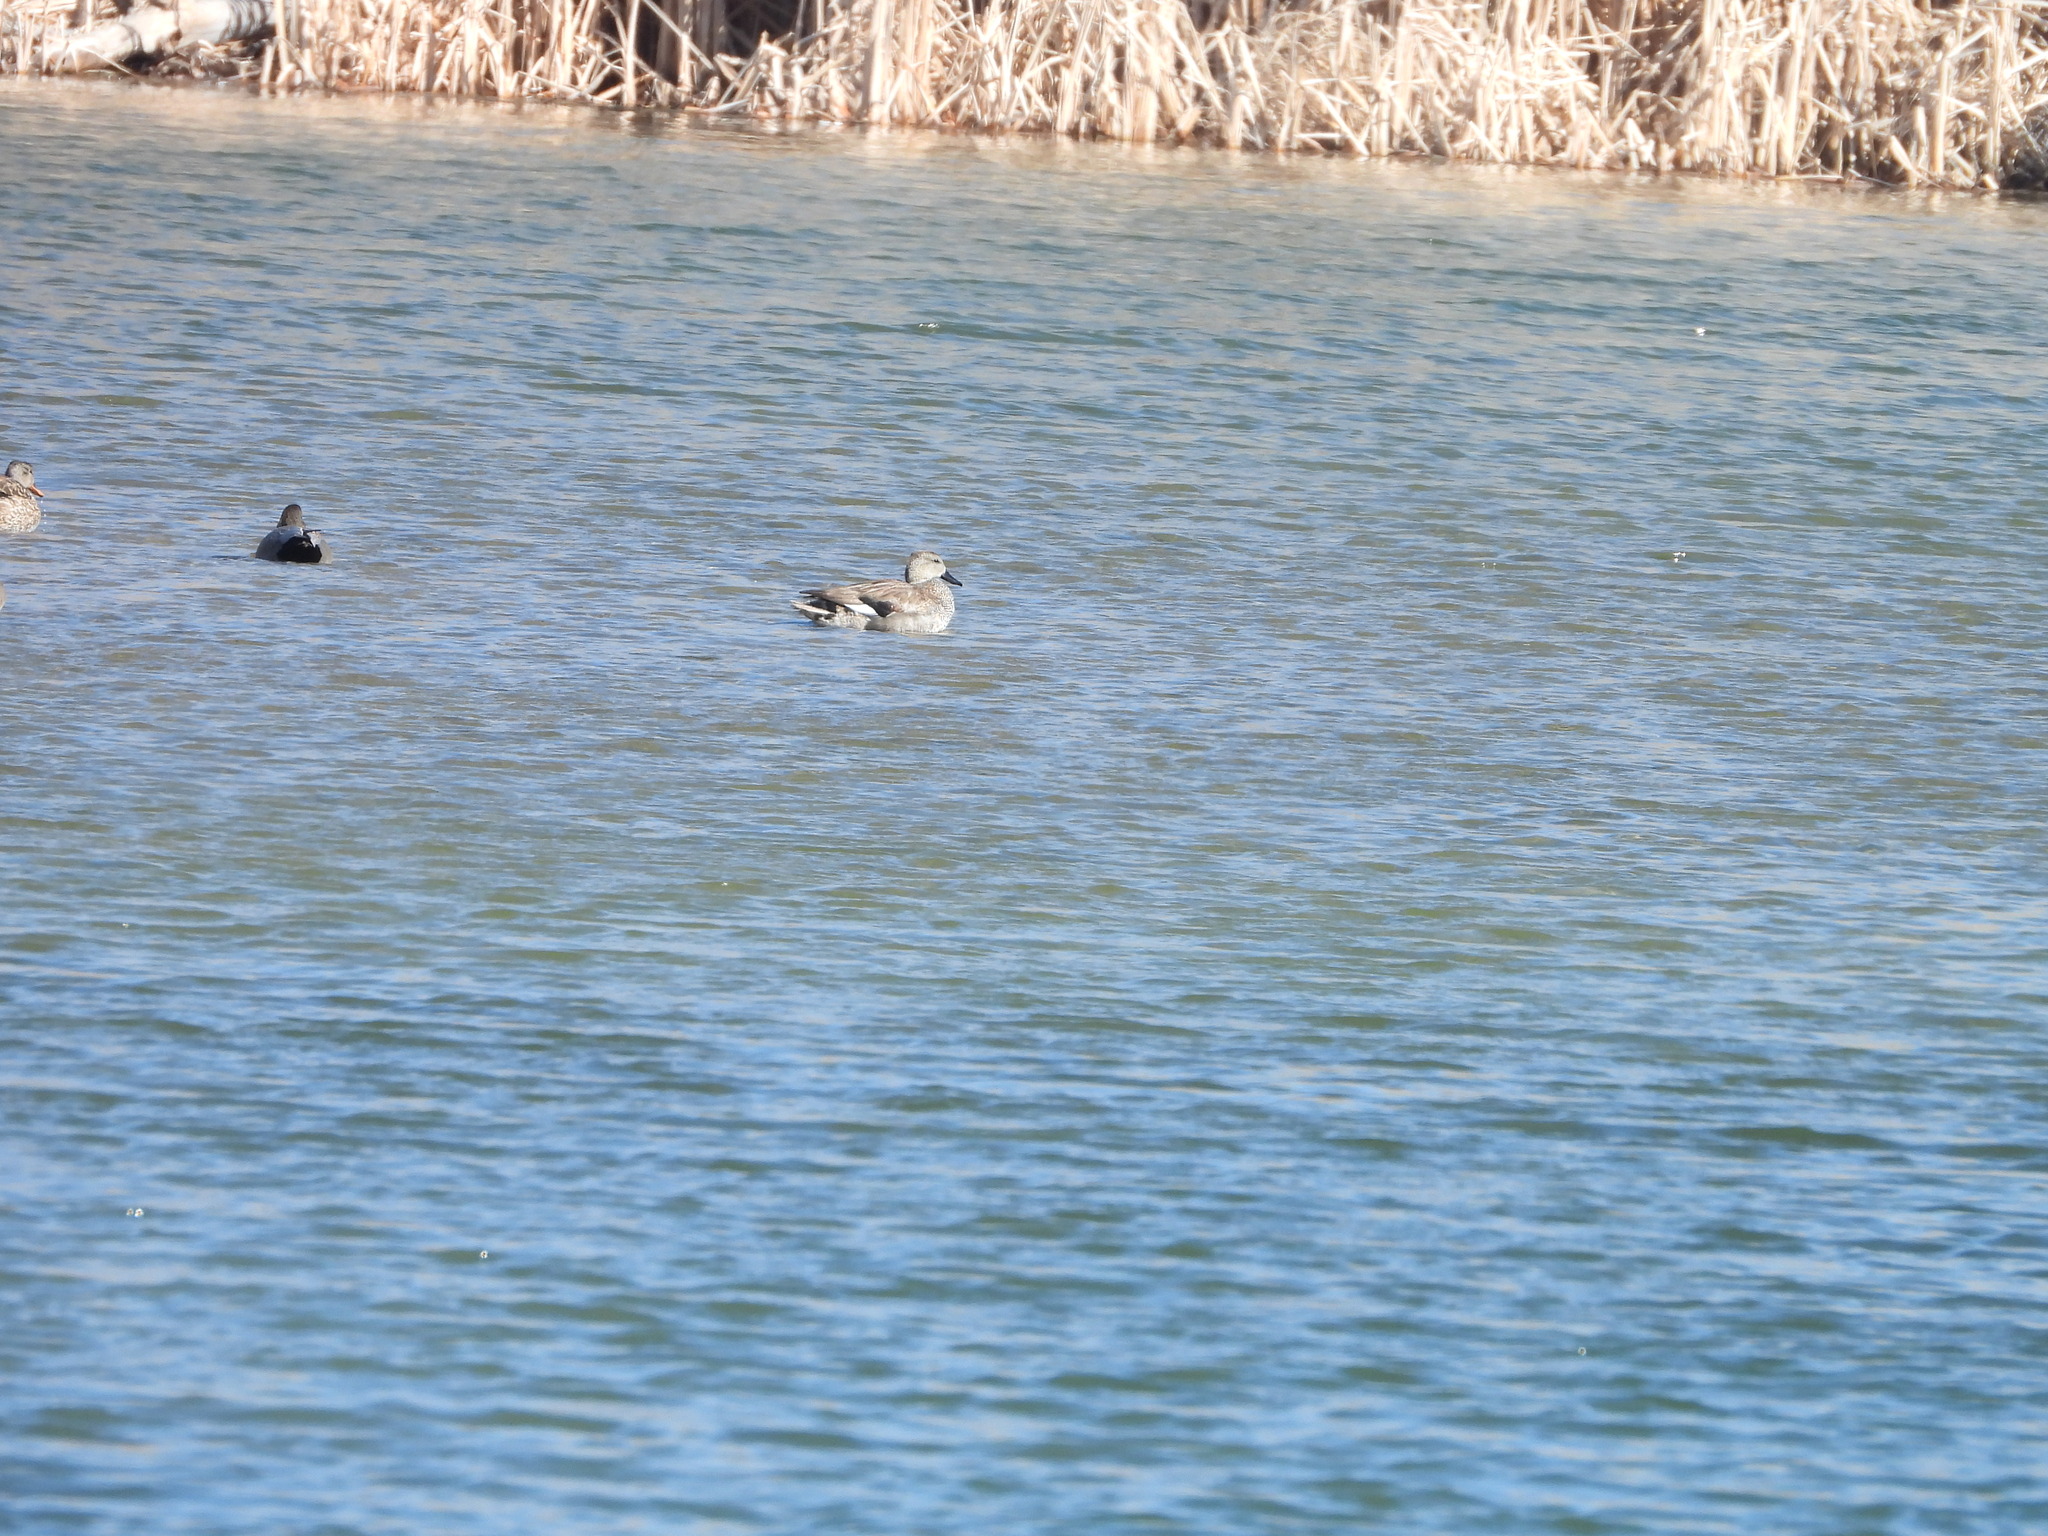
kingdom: Animalia
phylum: Chordata
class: Aves
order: Anseriformes
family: Anatidae
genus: Mareca
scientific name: Mareca strepera
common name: Gadwall
